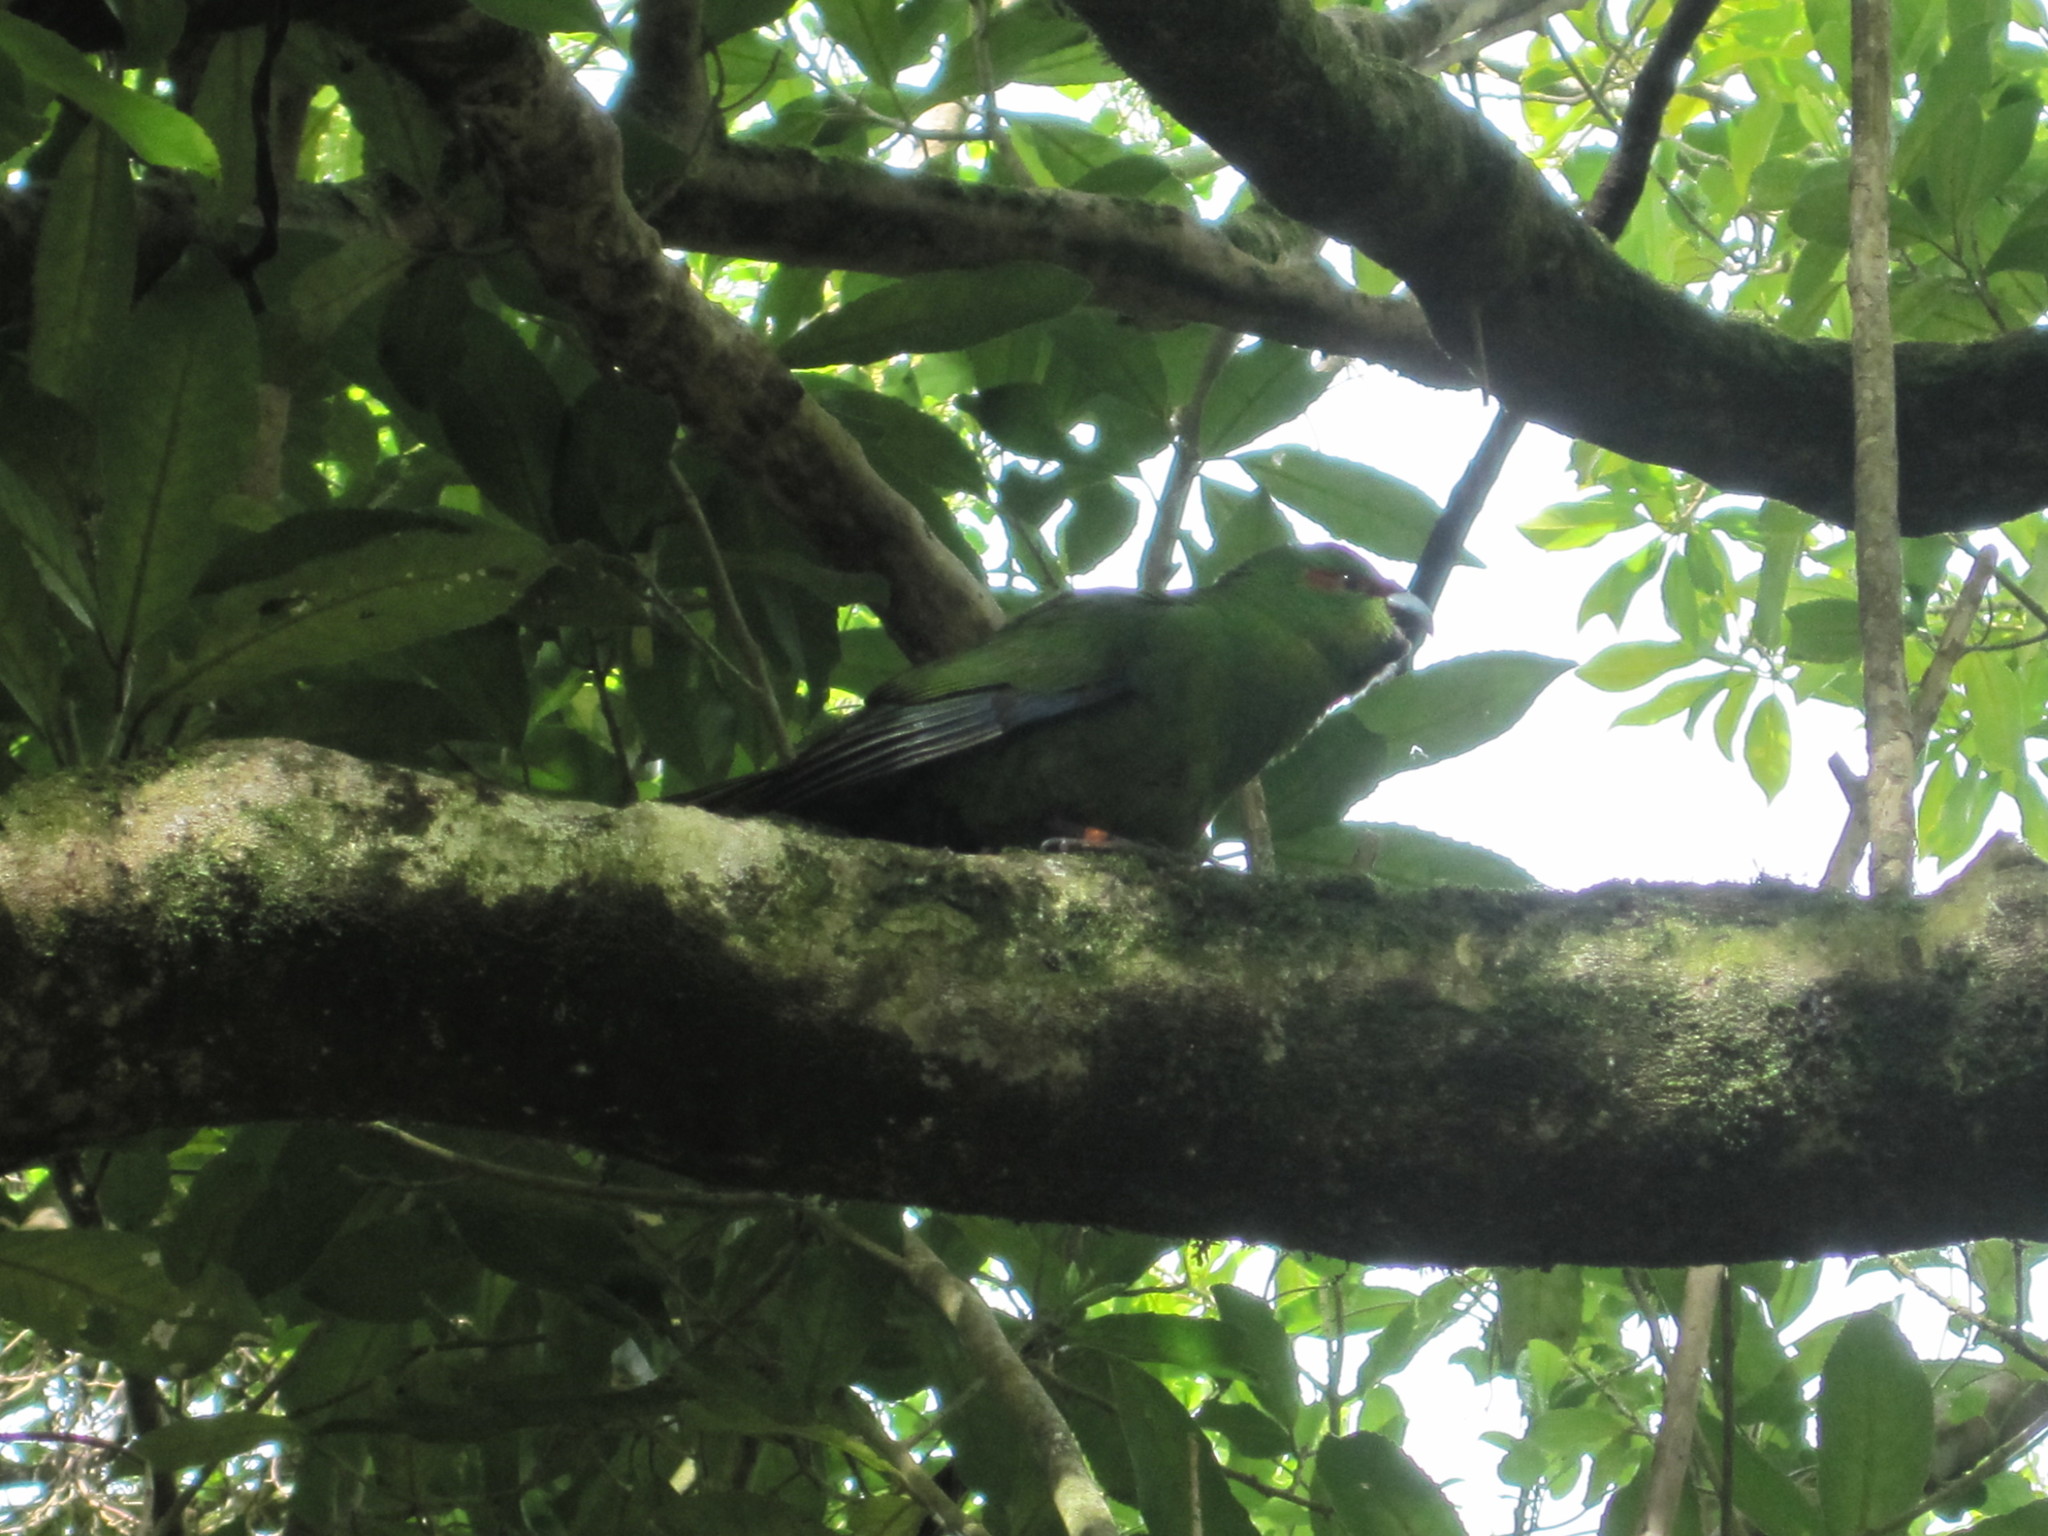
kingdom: Animalia
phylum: Chordata
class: Aves
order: Psittaciformes
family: Psittacidae
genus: Cyanoramphus
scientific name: Cyanoramphus novaezelandiae
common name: Red-fronted parakeet
